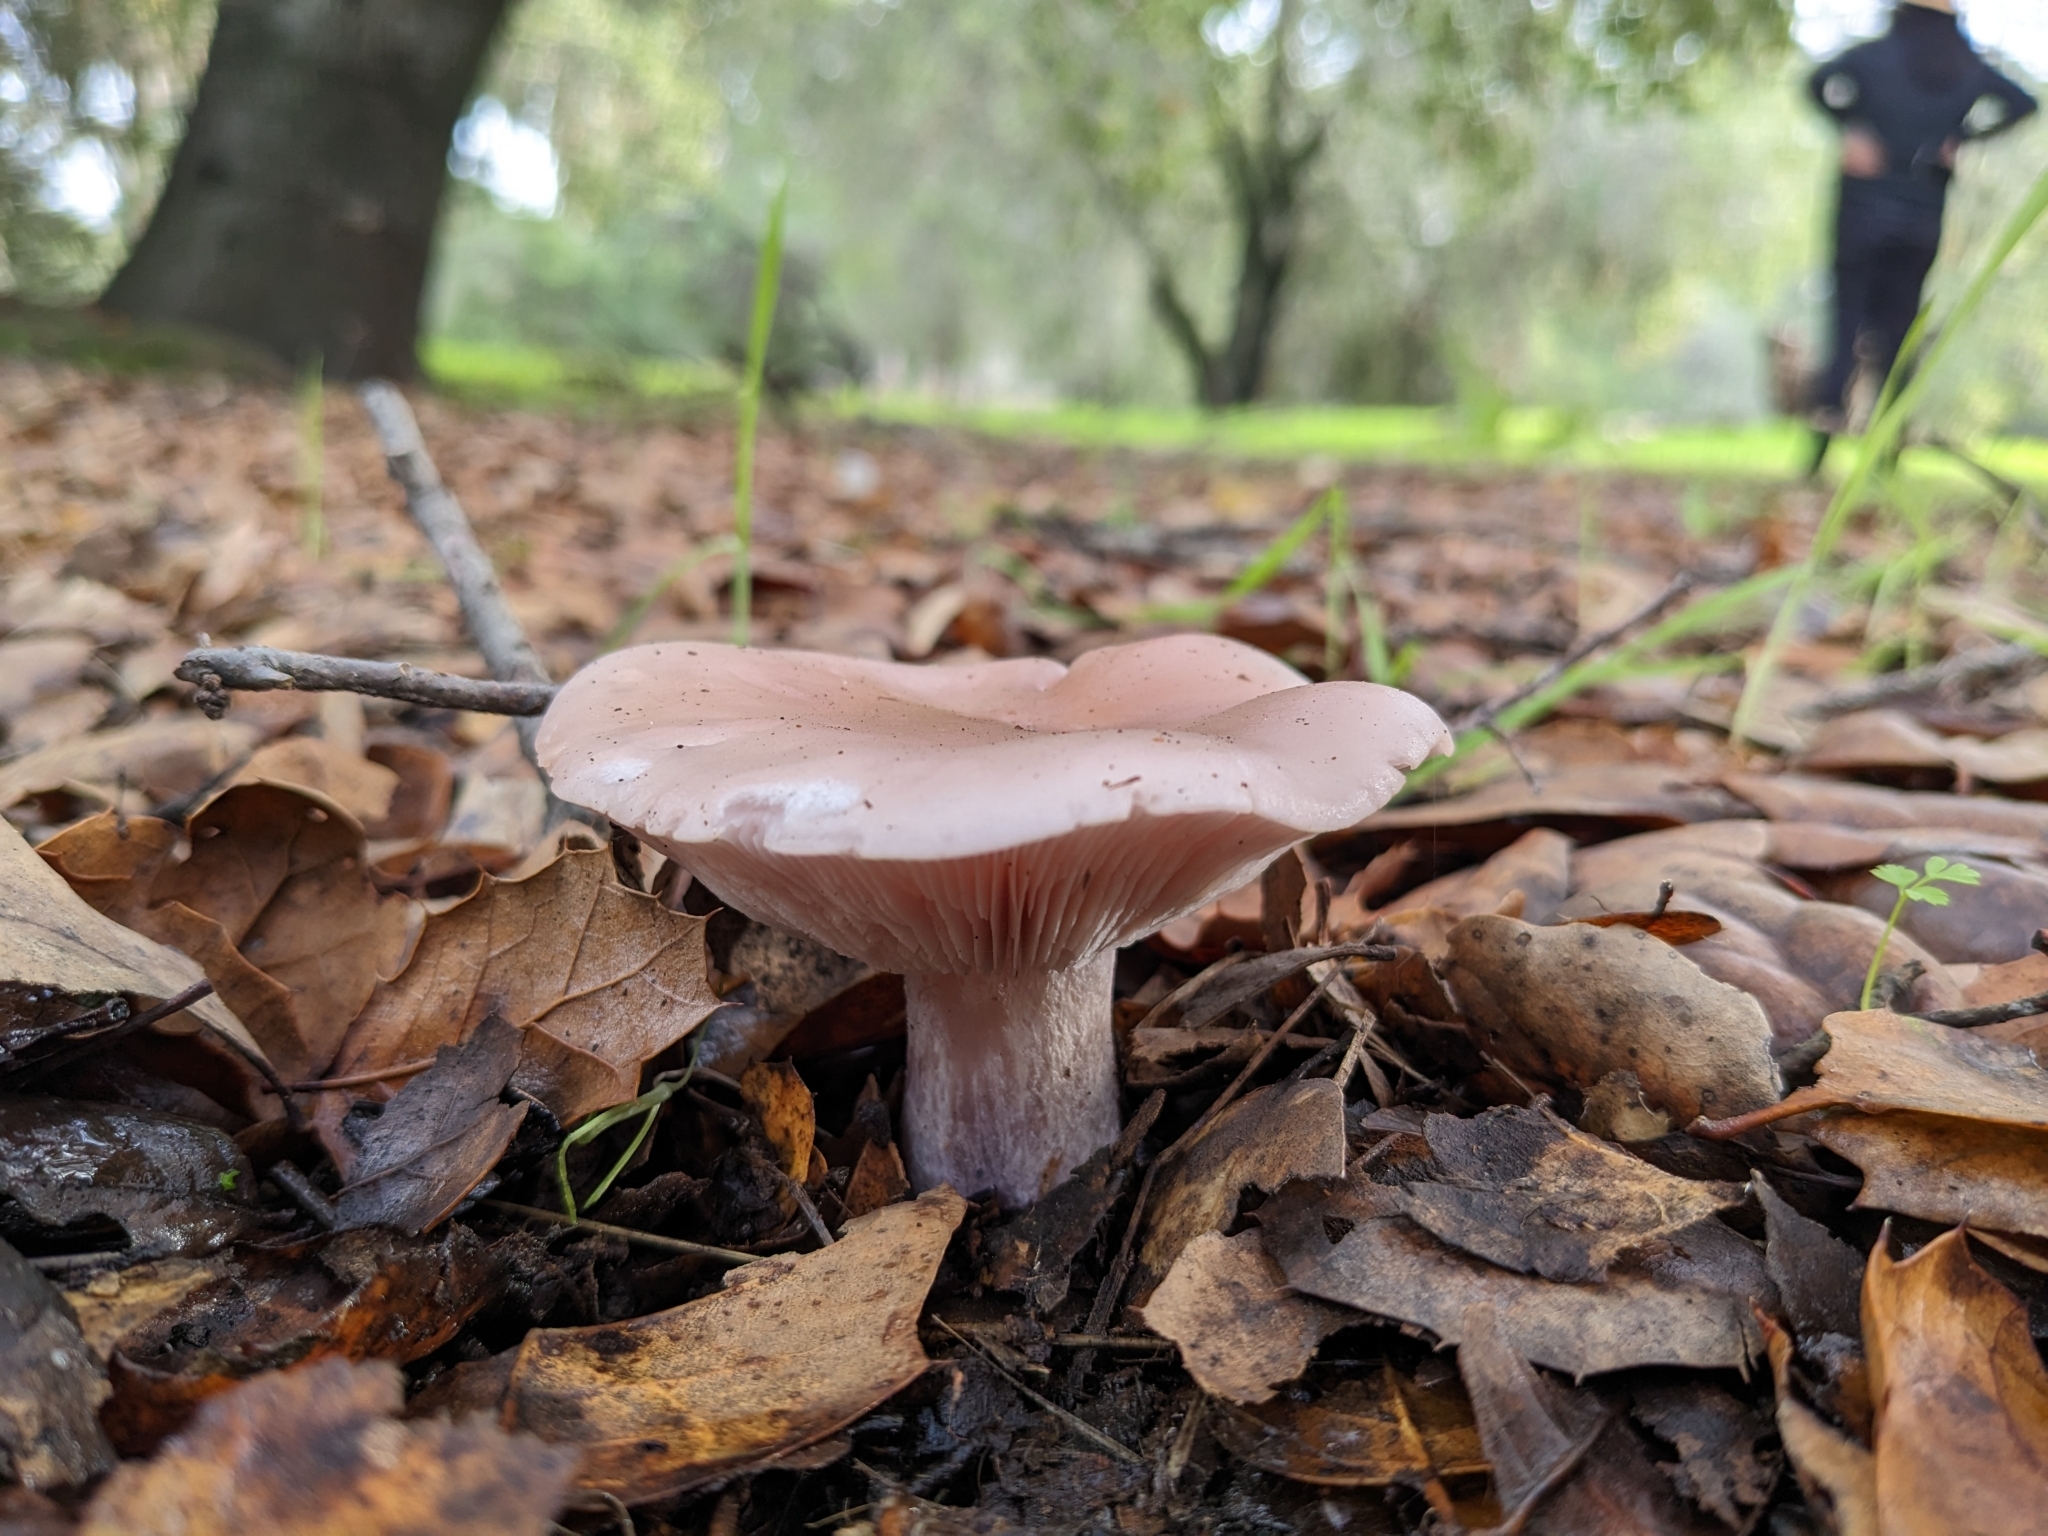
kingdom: Fungi
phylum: Basidiomycota
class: Agaricomycetes
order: Agaricales
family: Tricholomataceae
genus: Collybia
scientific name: Collybia
